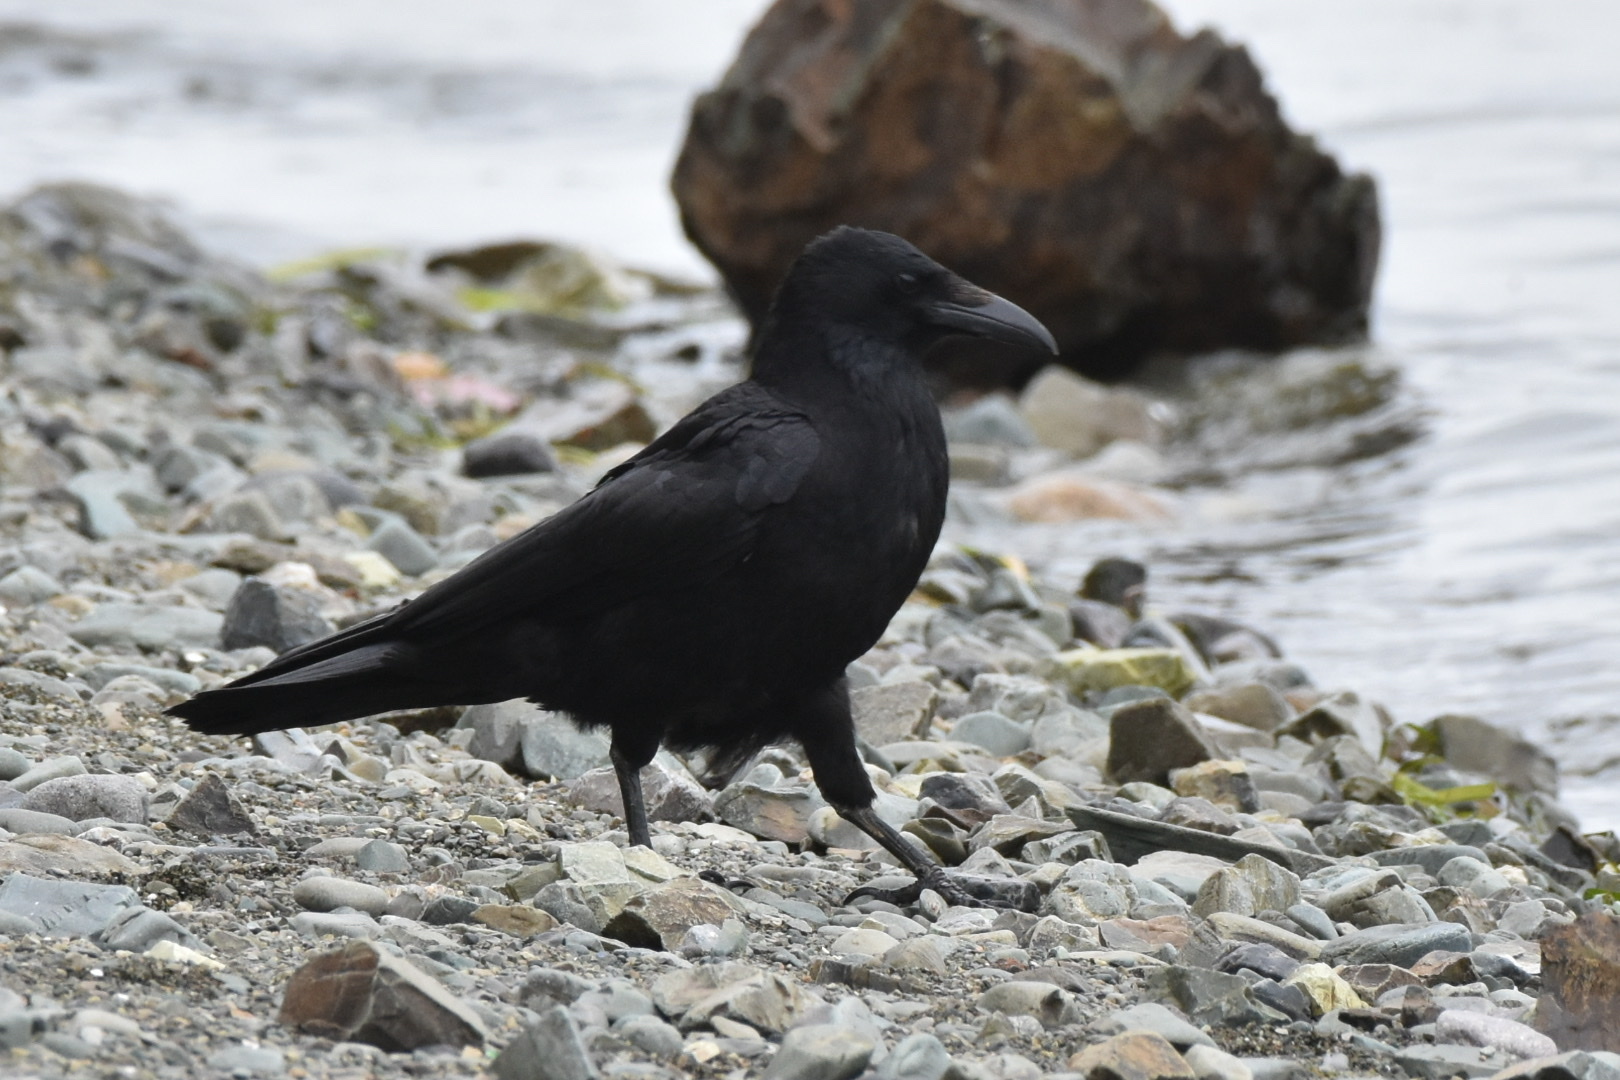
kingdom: Animalia
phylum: Chordata
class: Aves
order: Passeriformes
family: Corvidae
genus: Corvus
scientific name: Corvus corone
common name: Carrion crow
